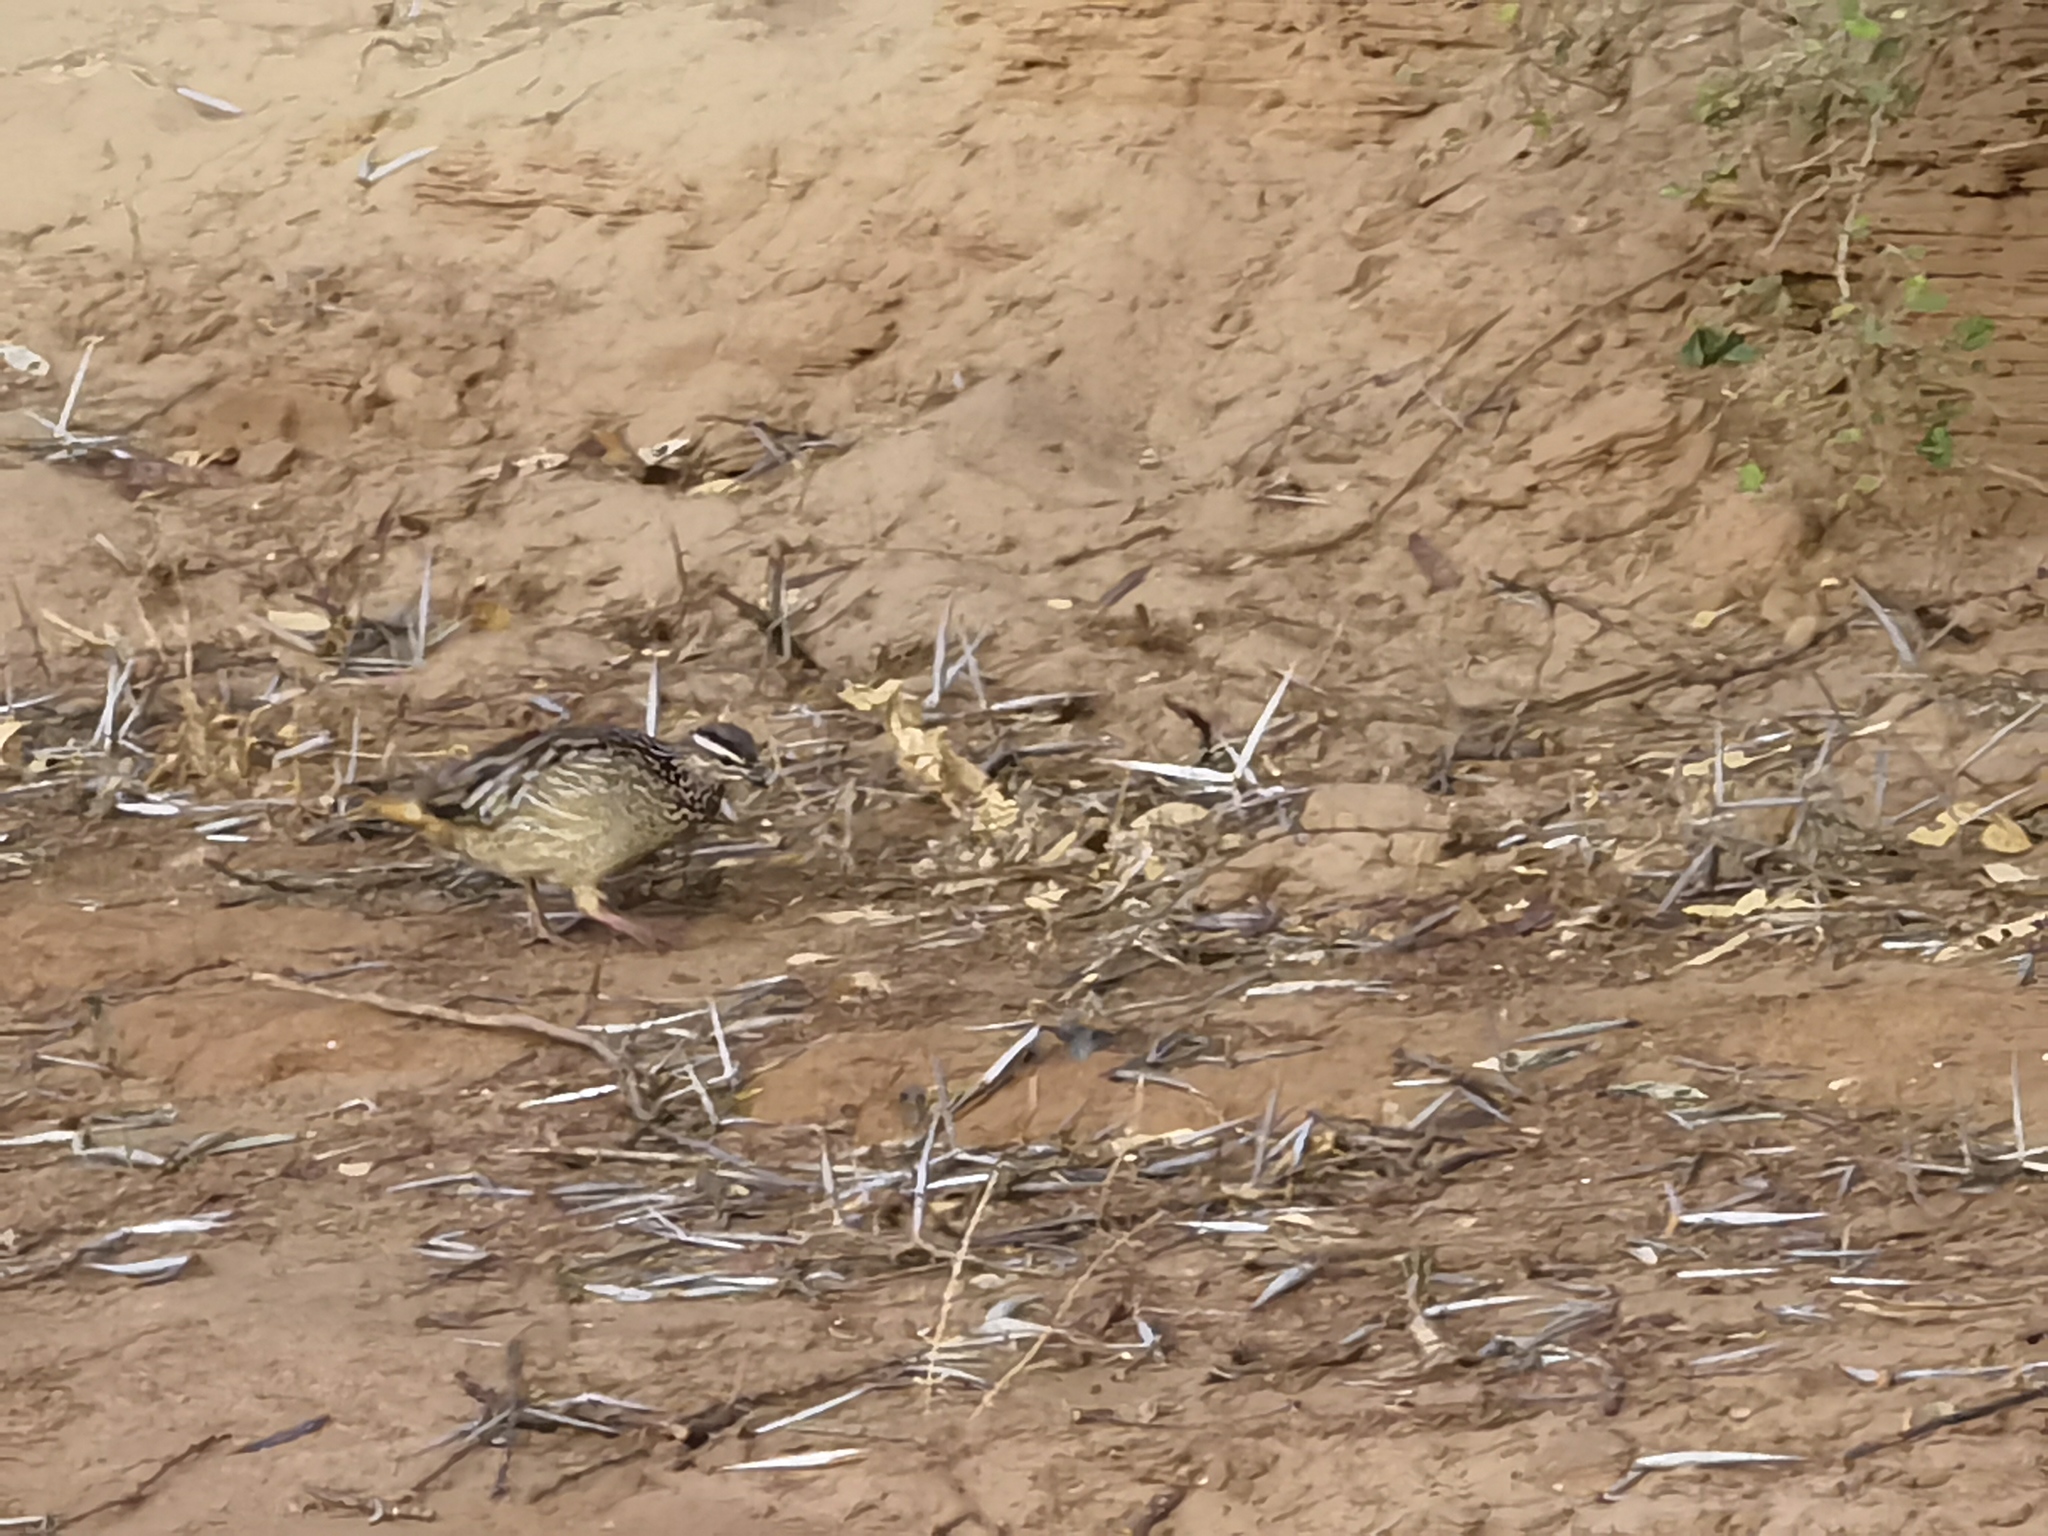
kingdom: Animalia
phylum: Chordata
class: Aves
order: Galliformes
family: Phasianidae
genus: Ortygornis
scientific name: Ortygornis sephaena
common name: Crested francolin
